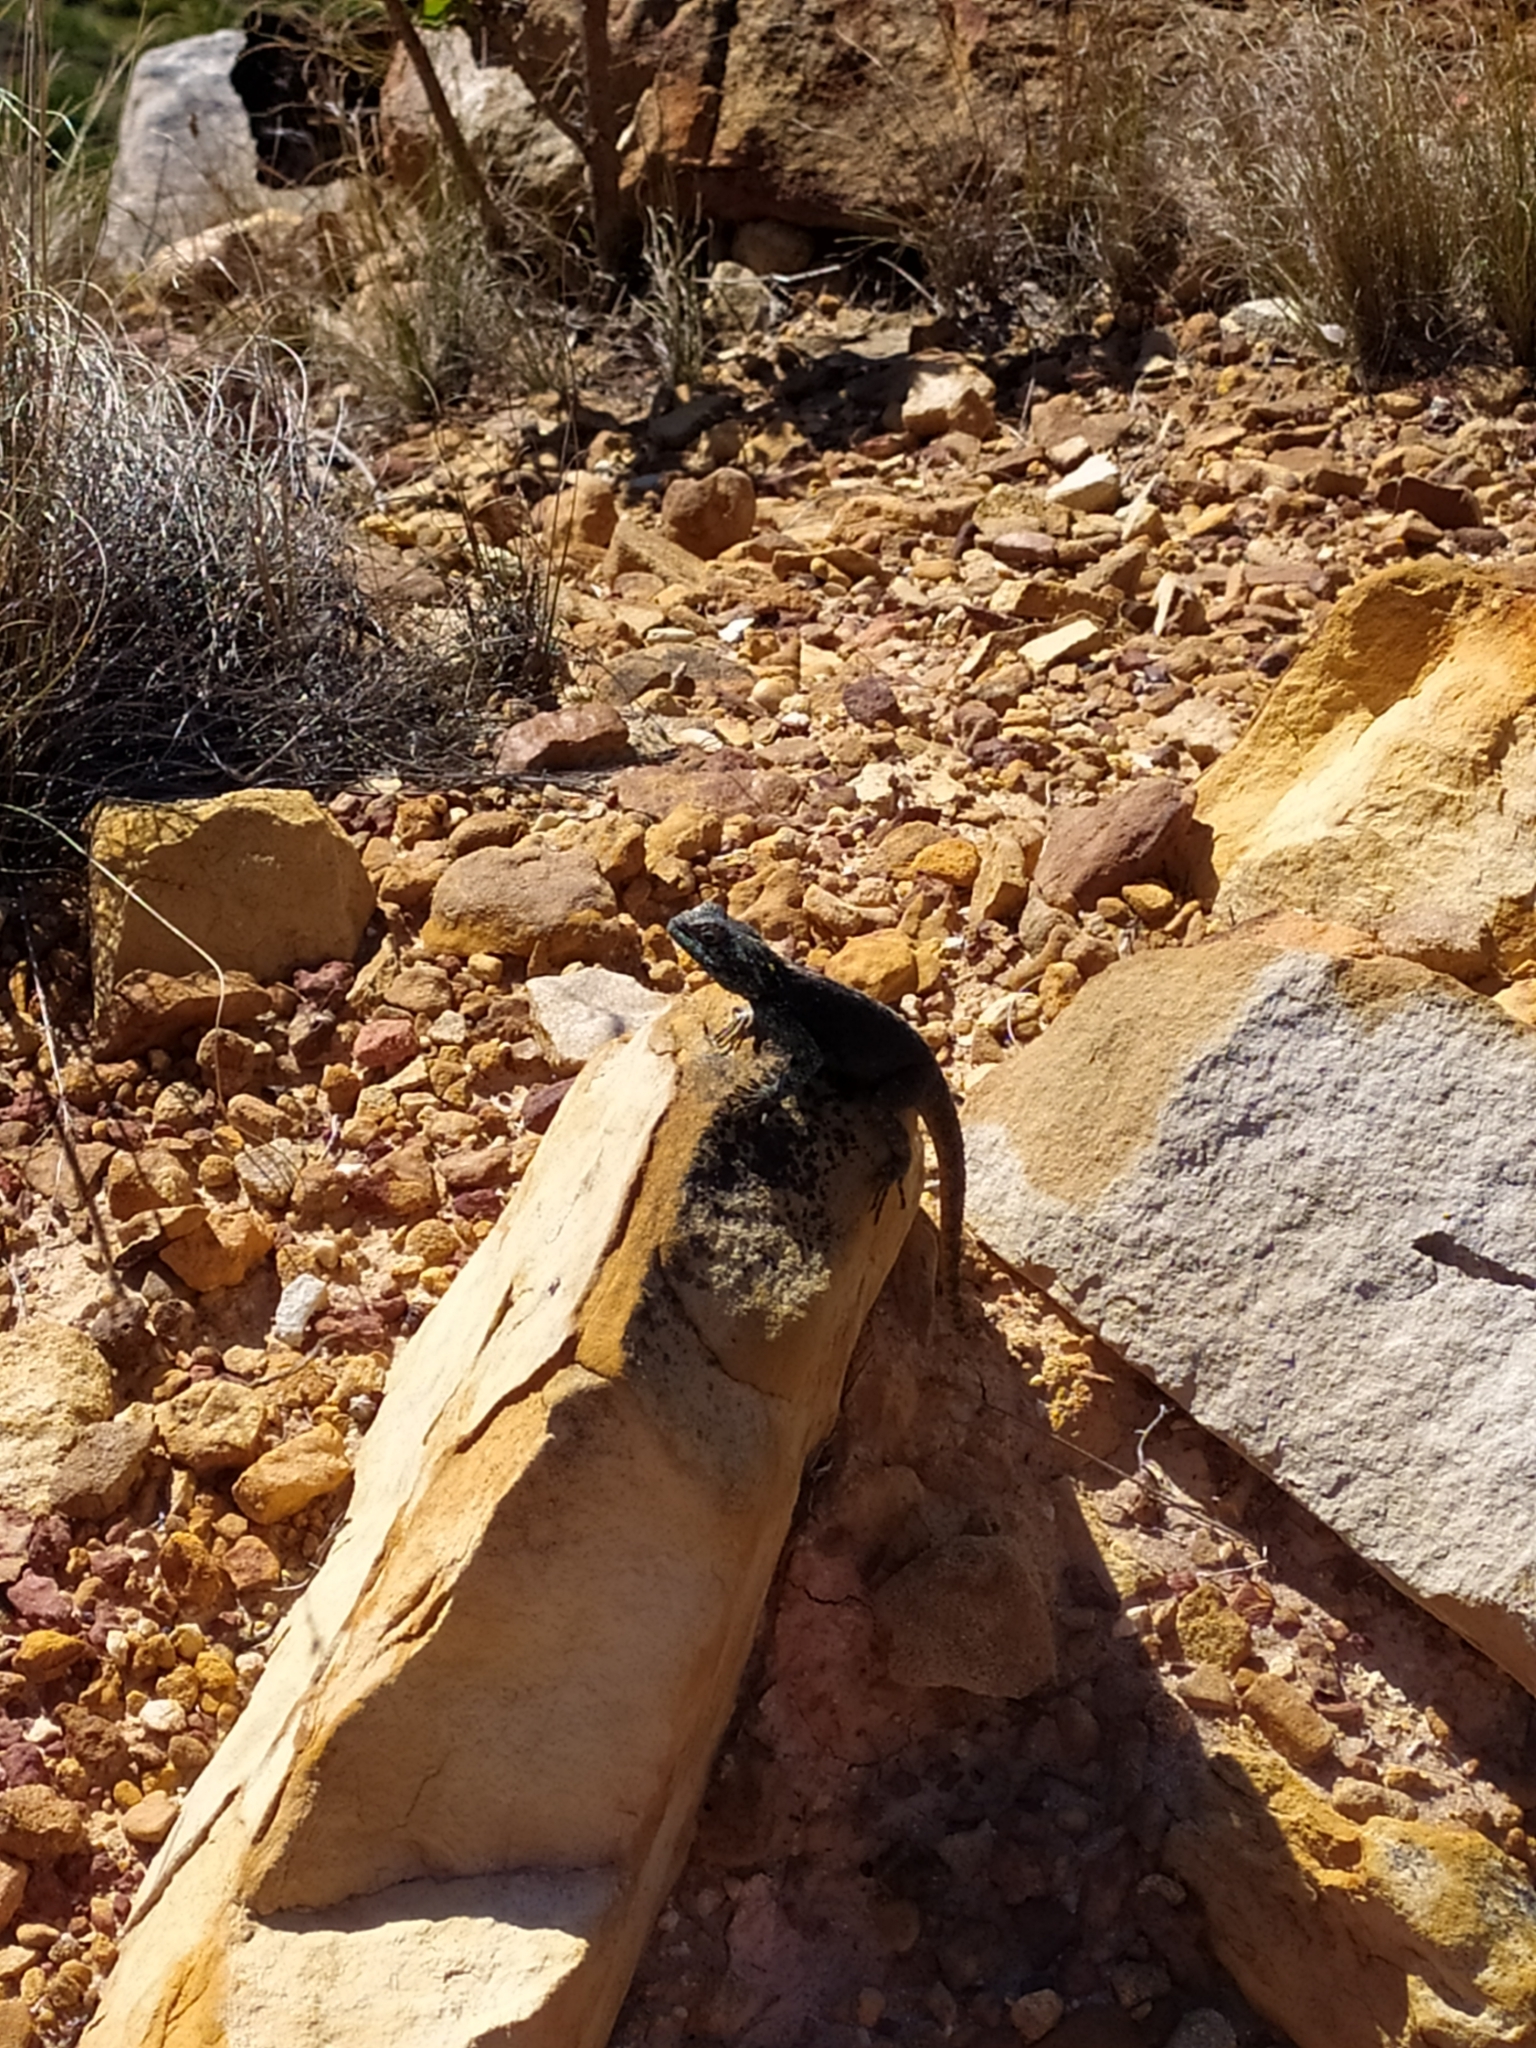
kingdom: Animalia
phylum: Chordata
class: Squamata
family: Agamidae
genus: Agama
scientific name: Agama atra
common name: Southern african rock agama
